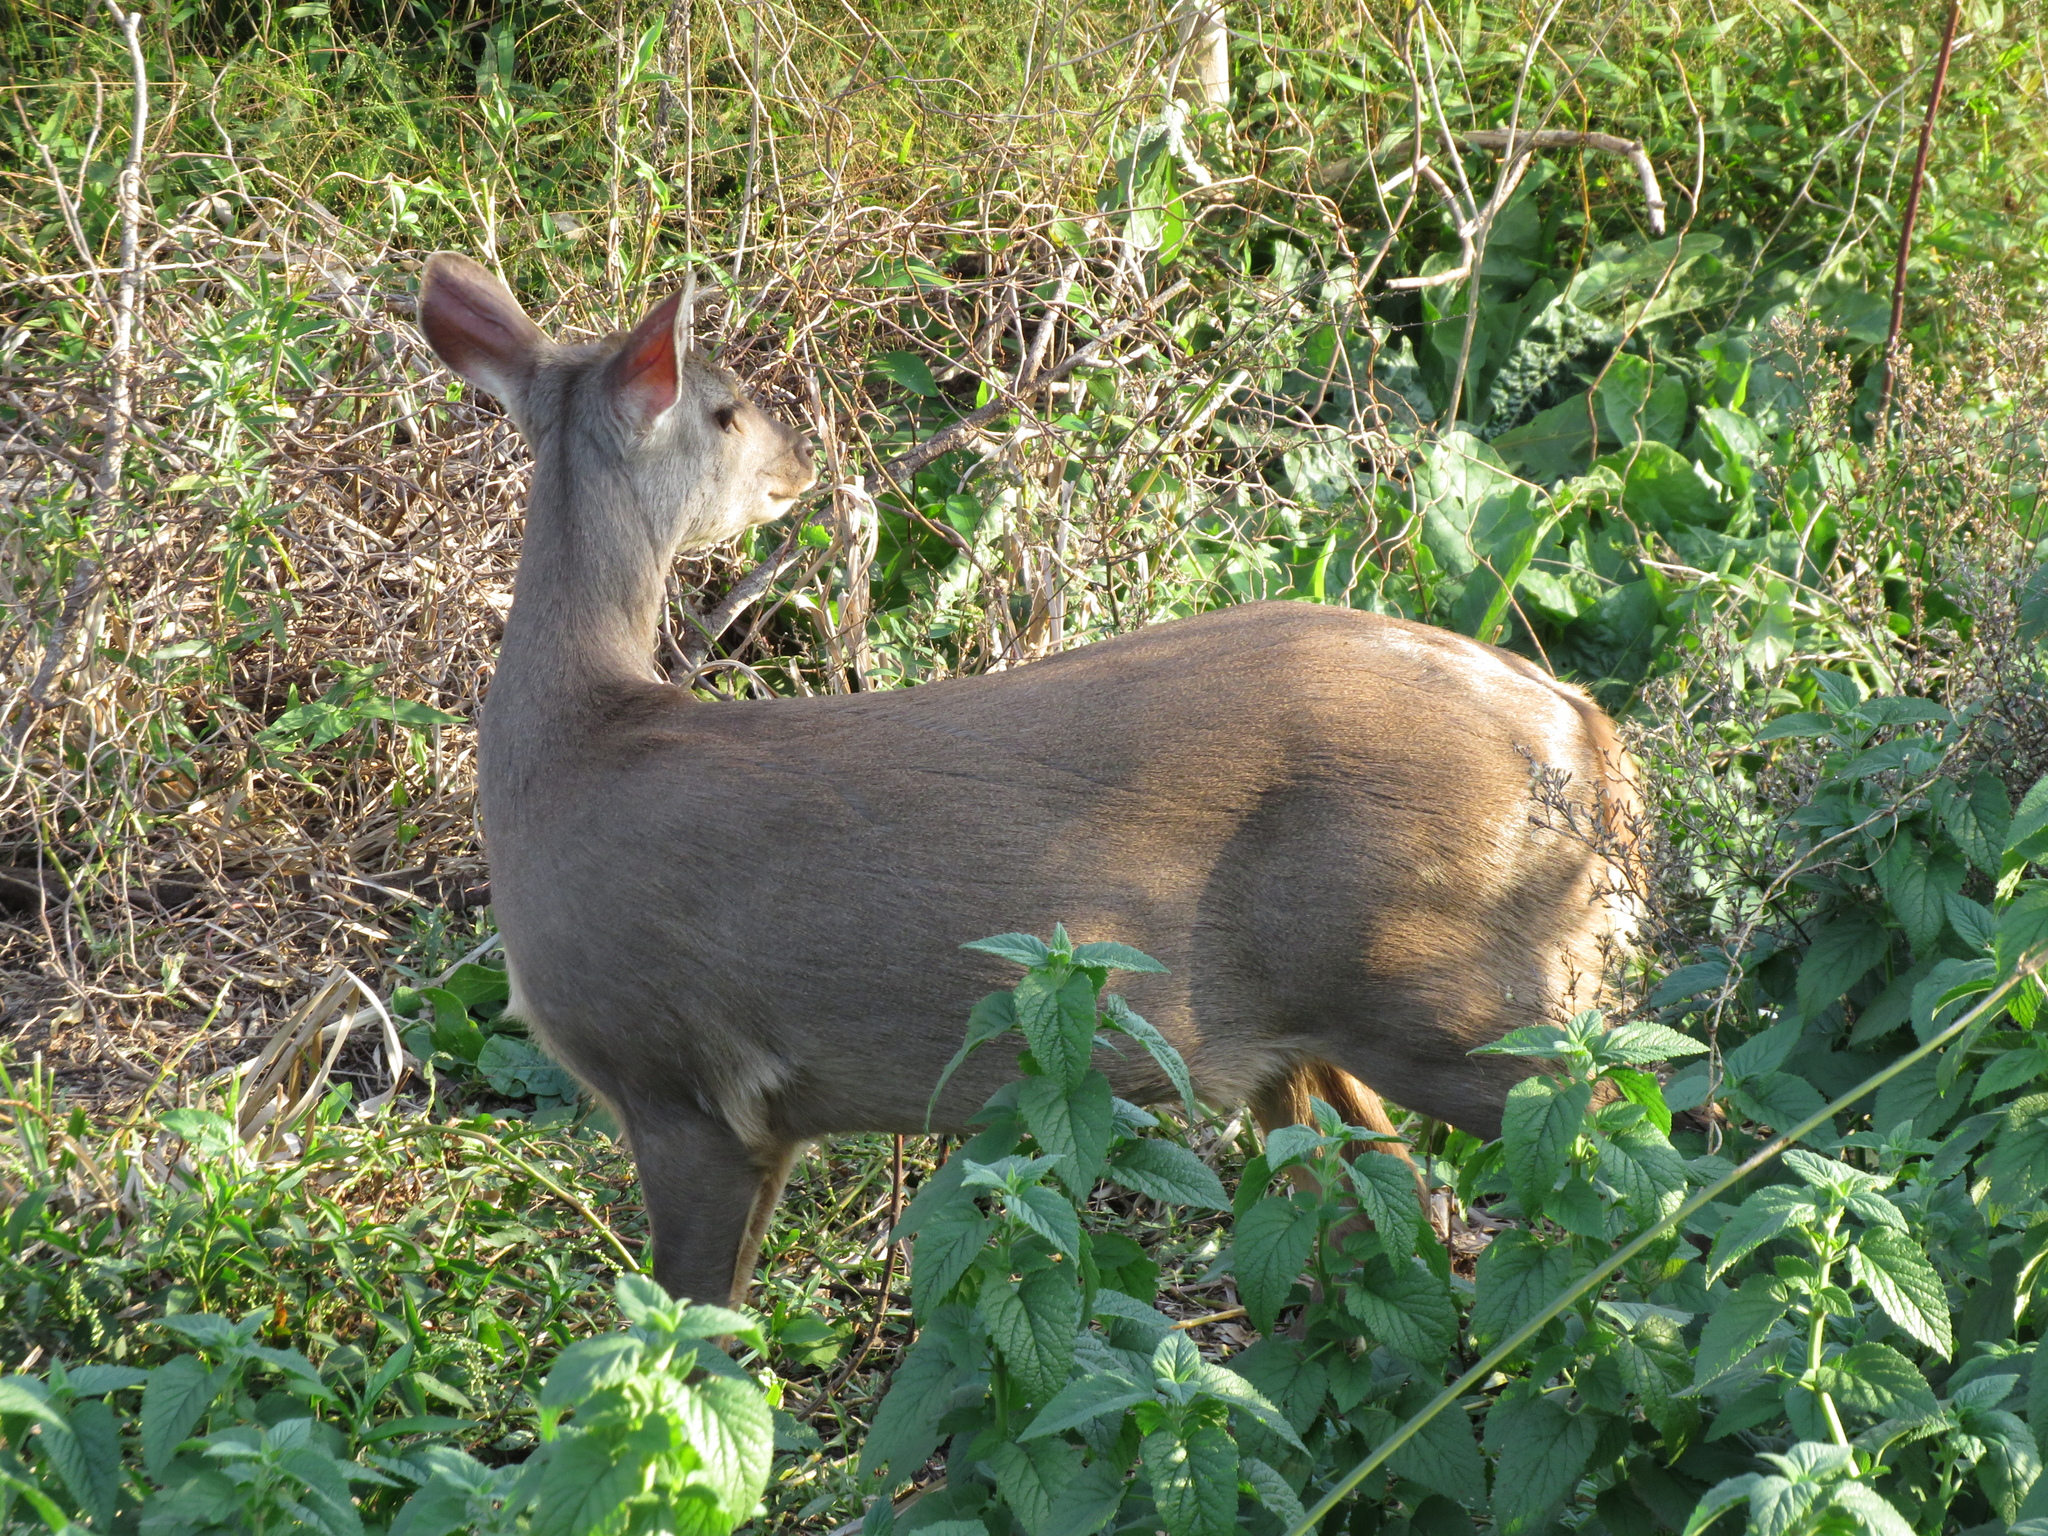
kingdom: Animalia
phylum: Chordata
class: Mammalia
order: Artiodactyla
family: Cervidae
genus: Mazama
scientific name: Mazama gouazoubira
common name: Gray brocket
